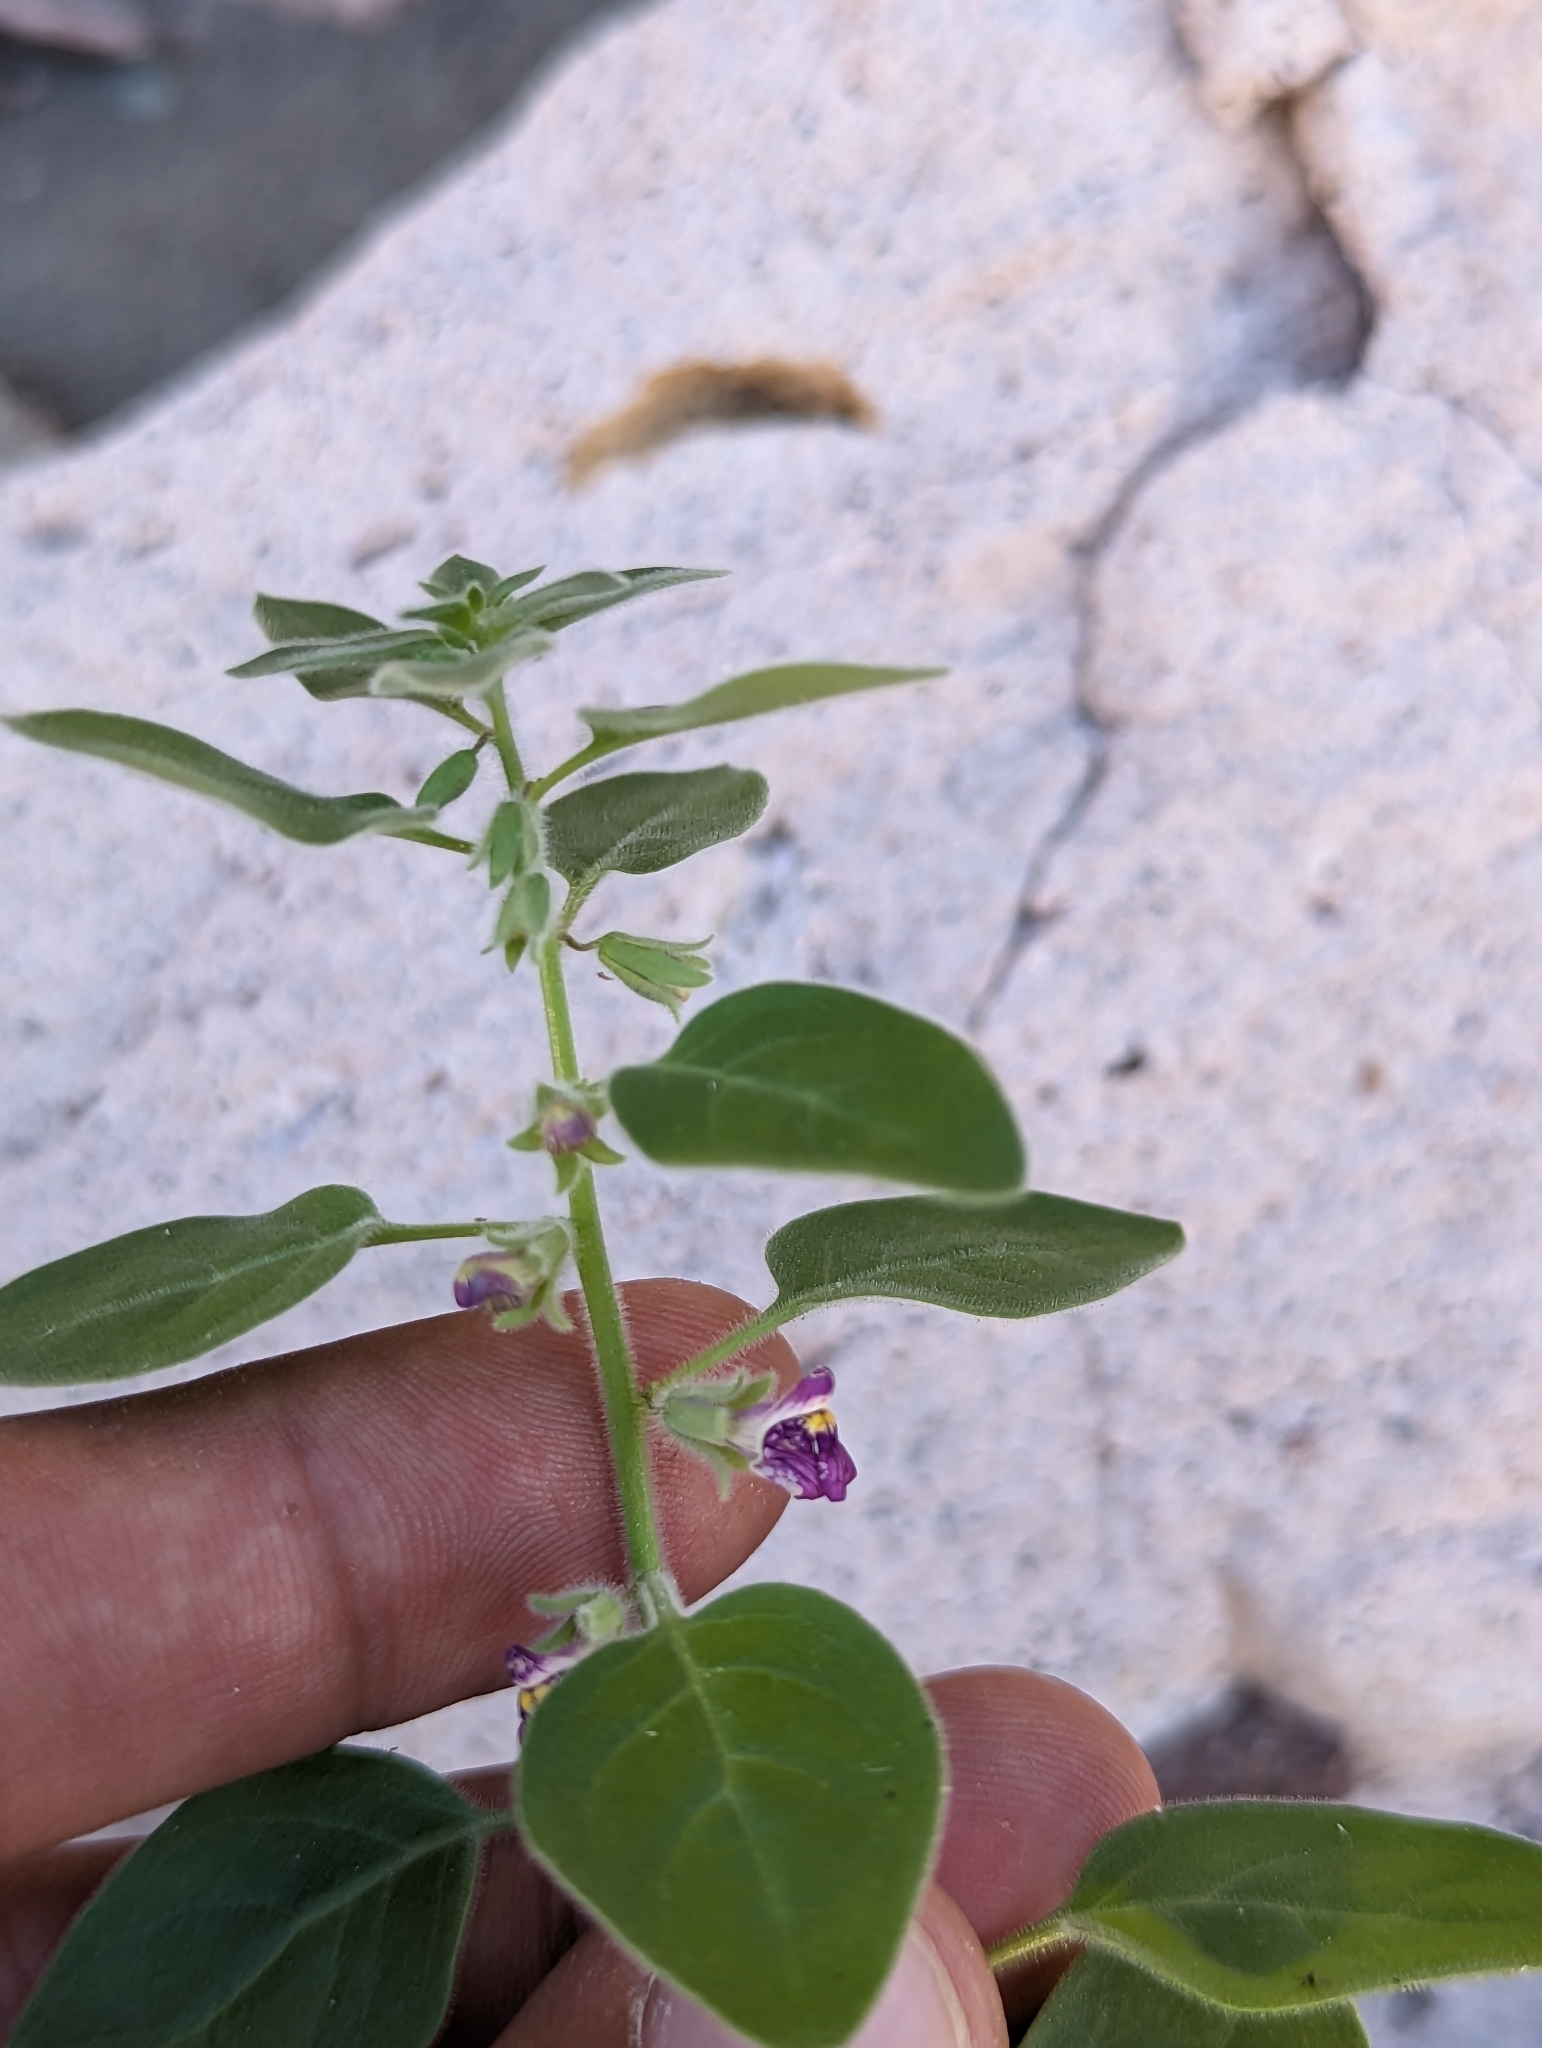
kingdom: Plantae
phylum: Tracheophyta
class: Magnoliopsida
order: Lamiales
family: Plantaginaceae
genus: Pseudorontium
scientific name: Pseudorontium cyathiferum
